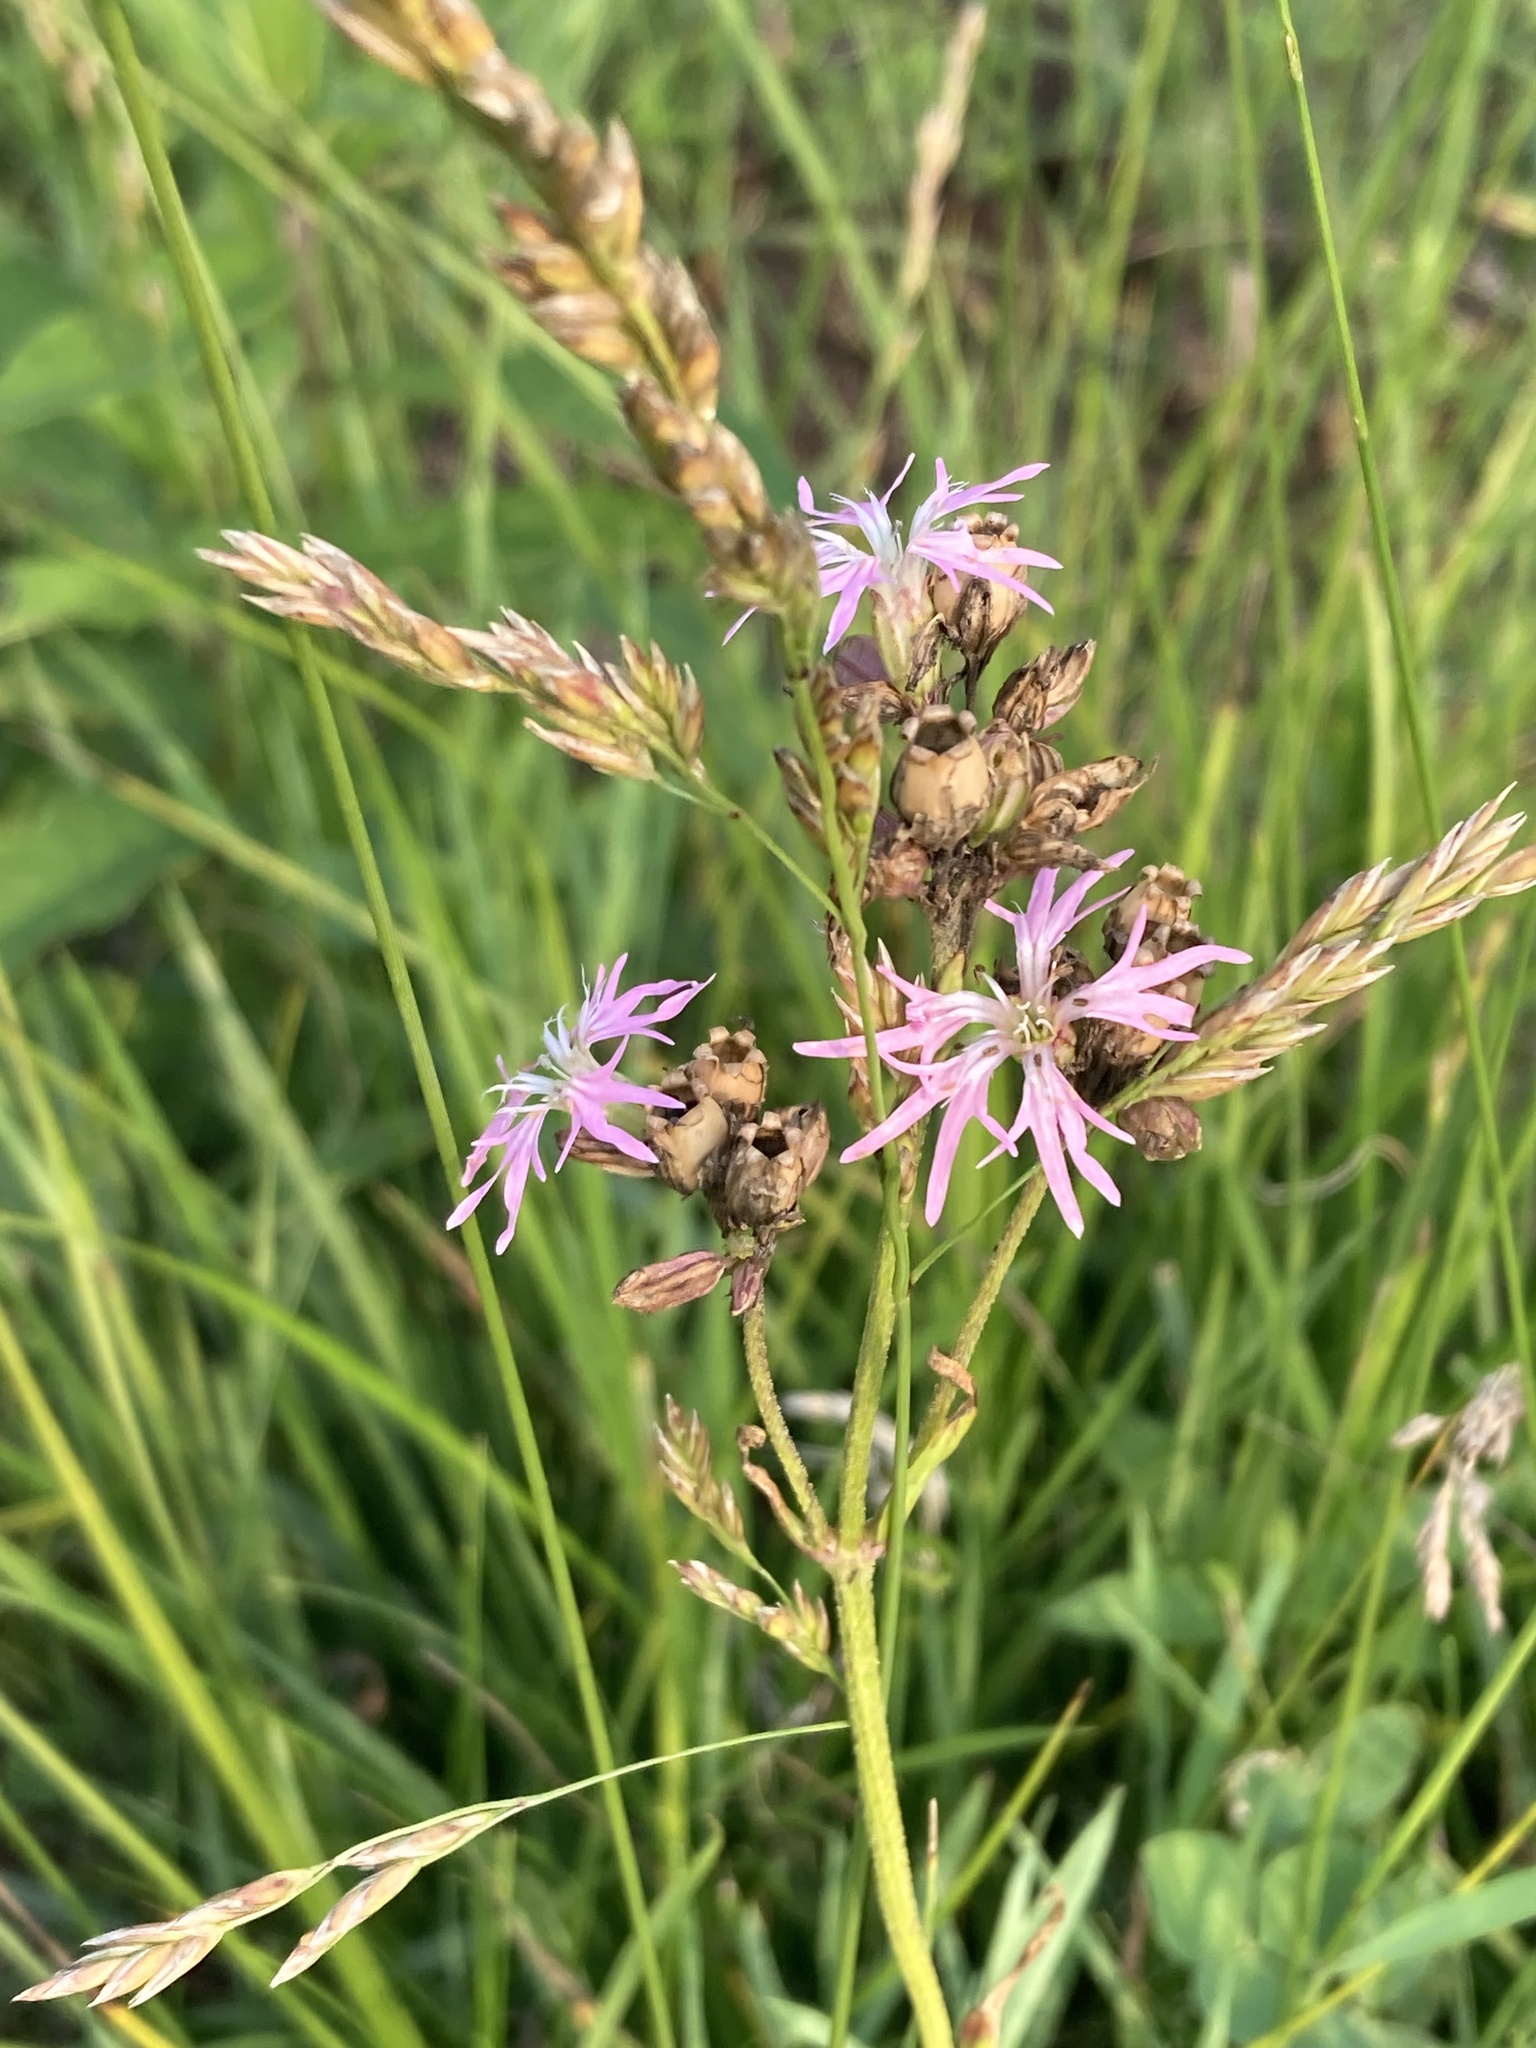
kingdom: Plantae
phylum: Tracheophyta
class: Magnoliopsida
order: Caryophyllales
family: Caryophyllaceae
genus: Silene
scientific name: Silene flos-cuculi
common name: Ragged-robin
